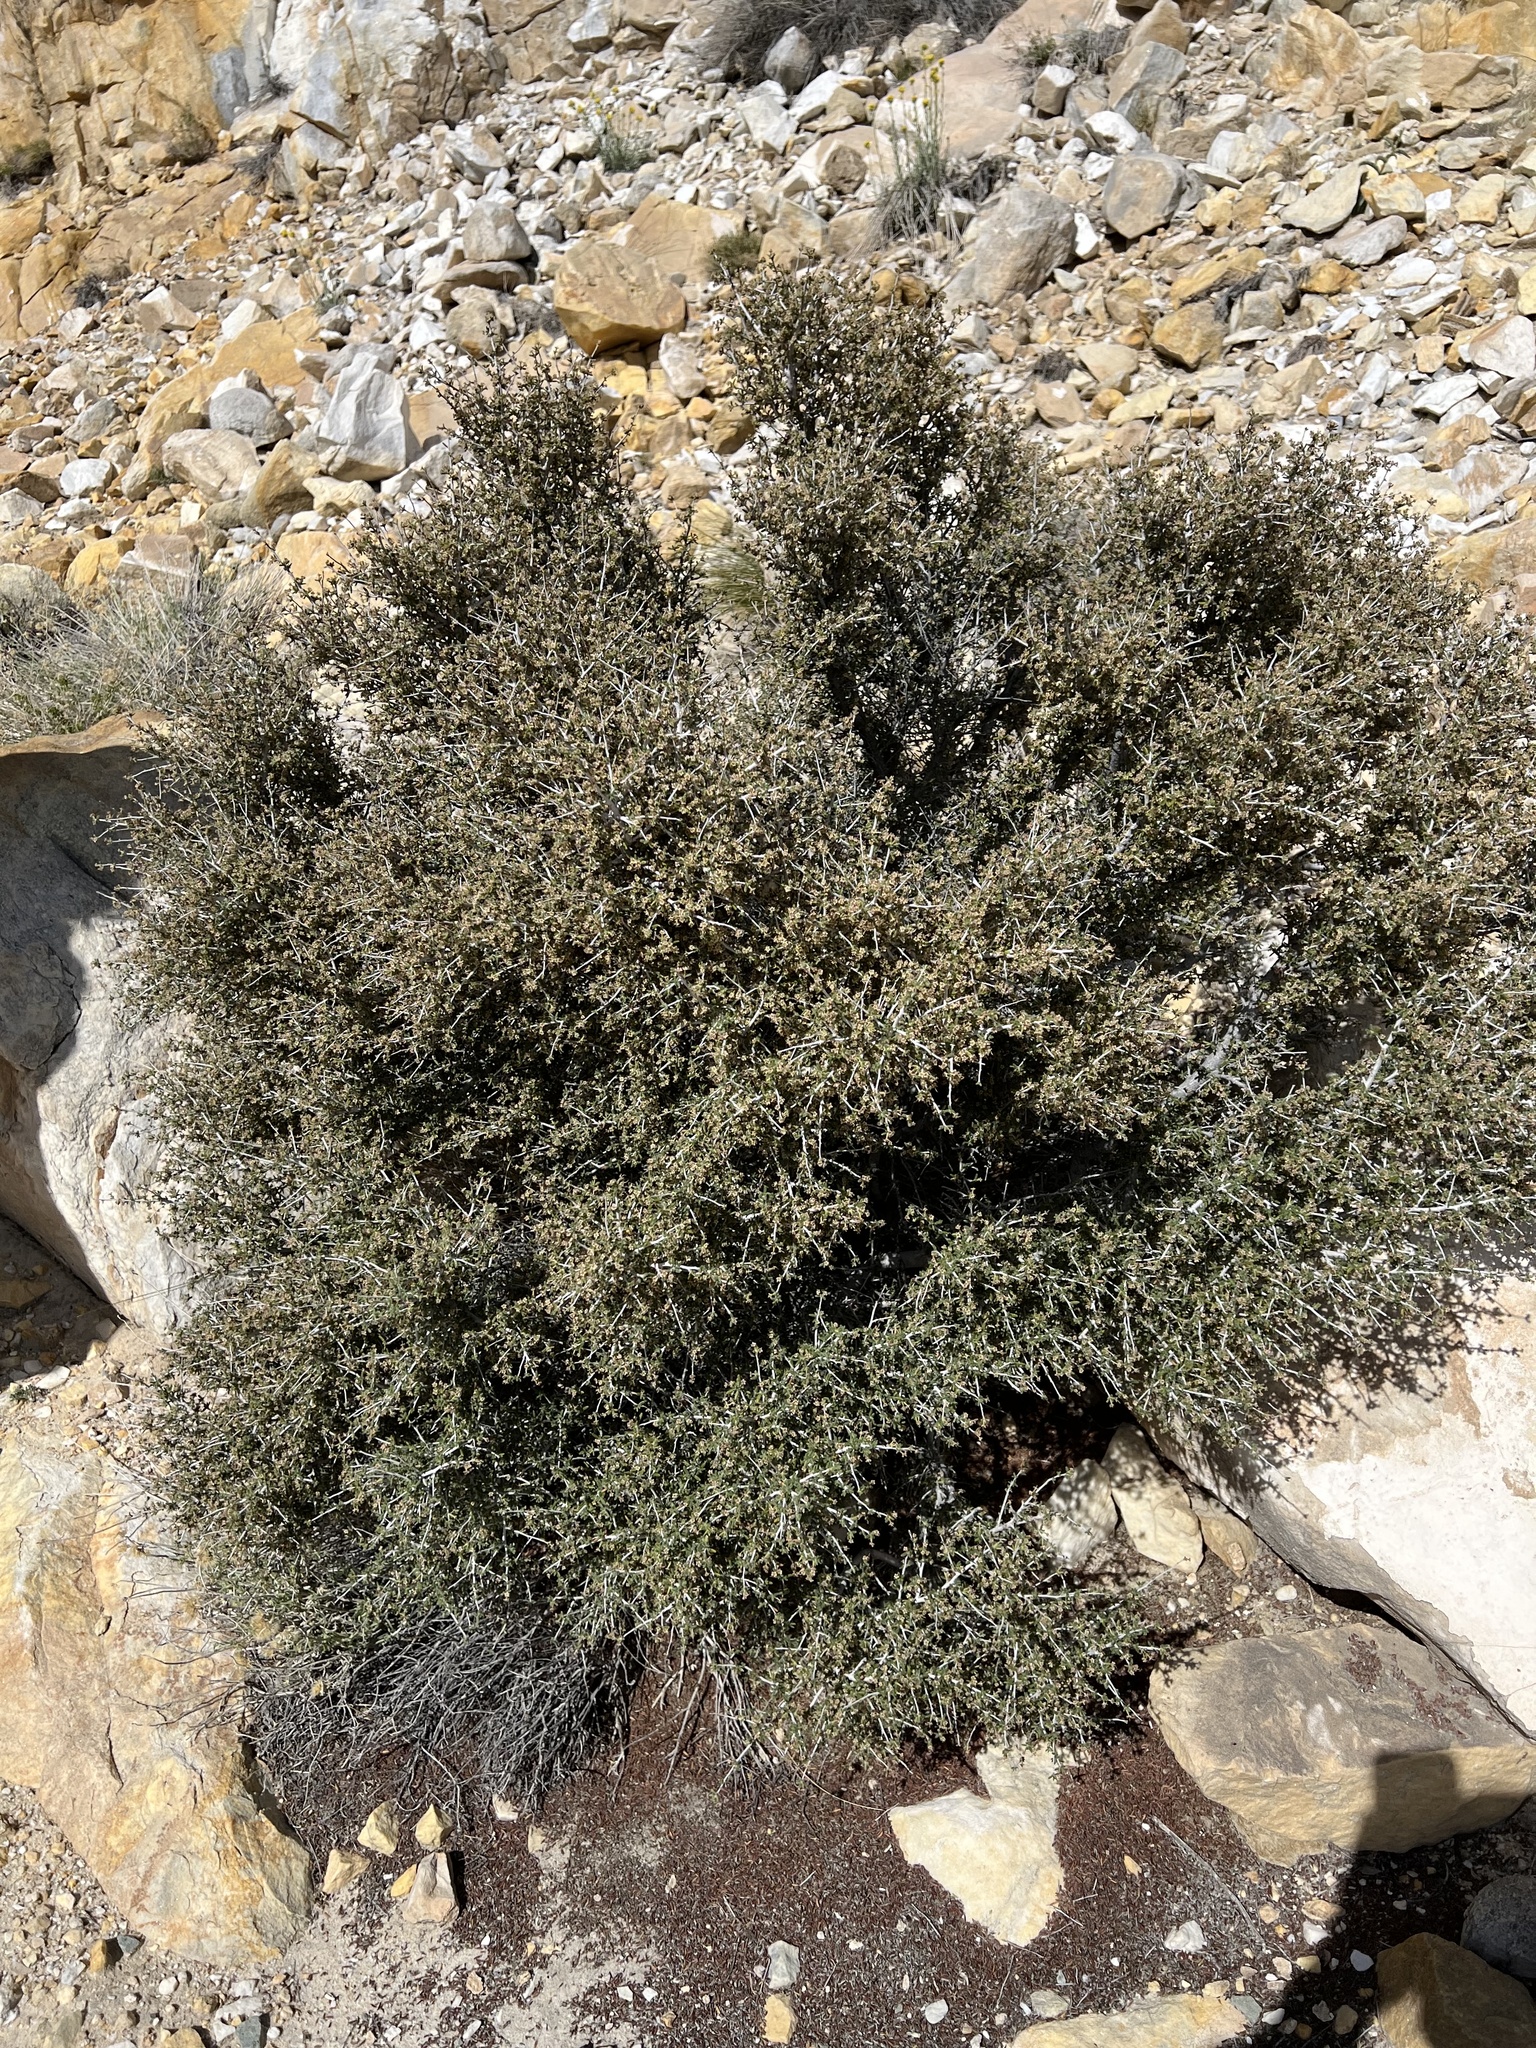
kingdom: Plantae
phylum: Tracheophyta
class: Magnoliopsida
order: Rosales
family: Rosaceae
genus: Cercocarpus
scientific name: Cercocarpus intricatus
